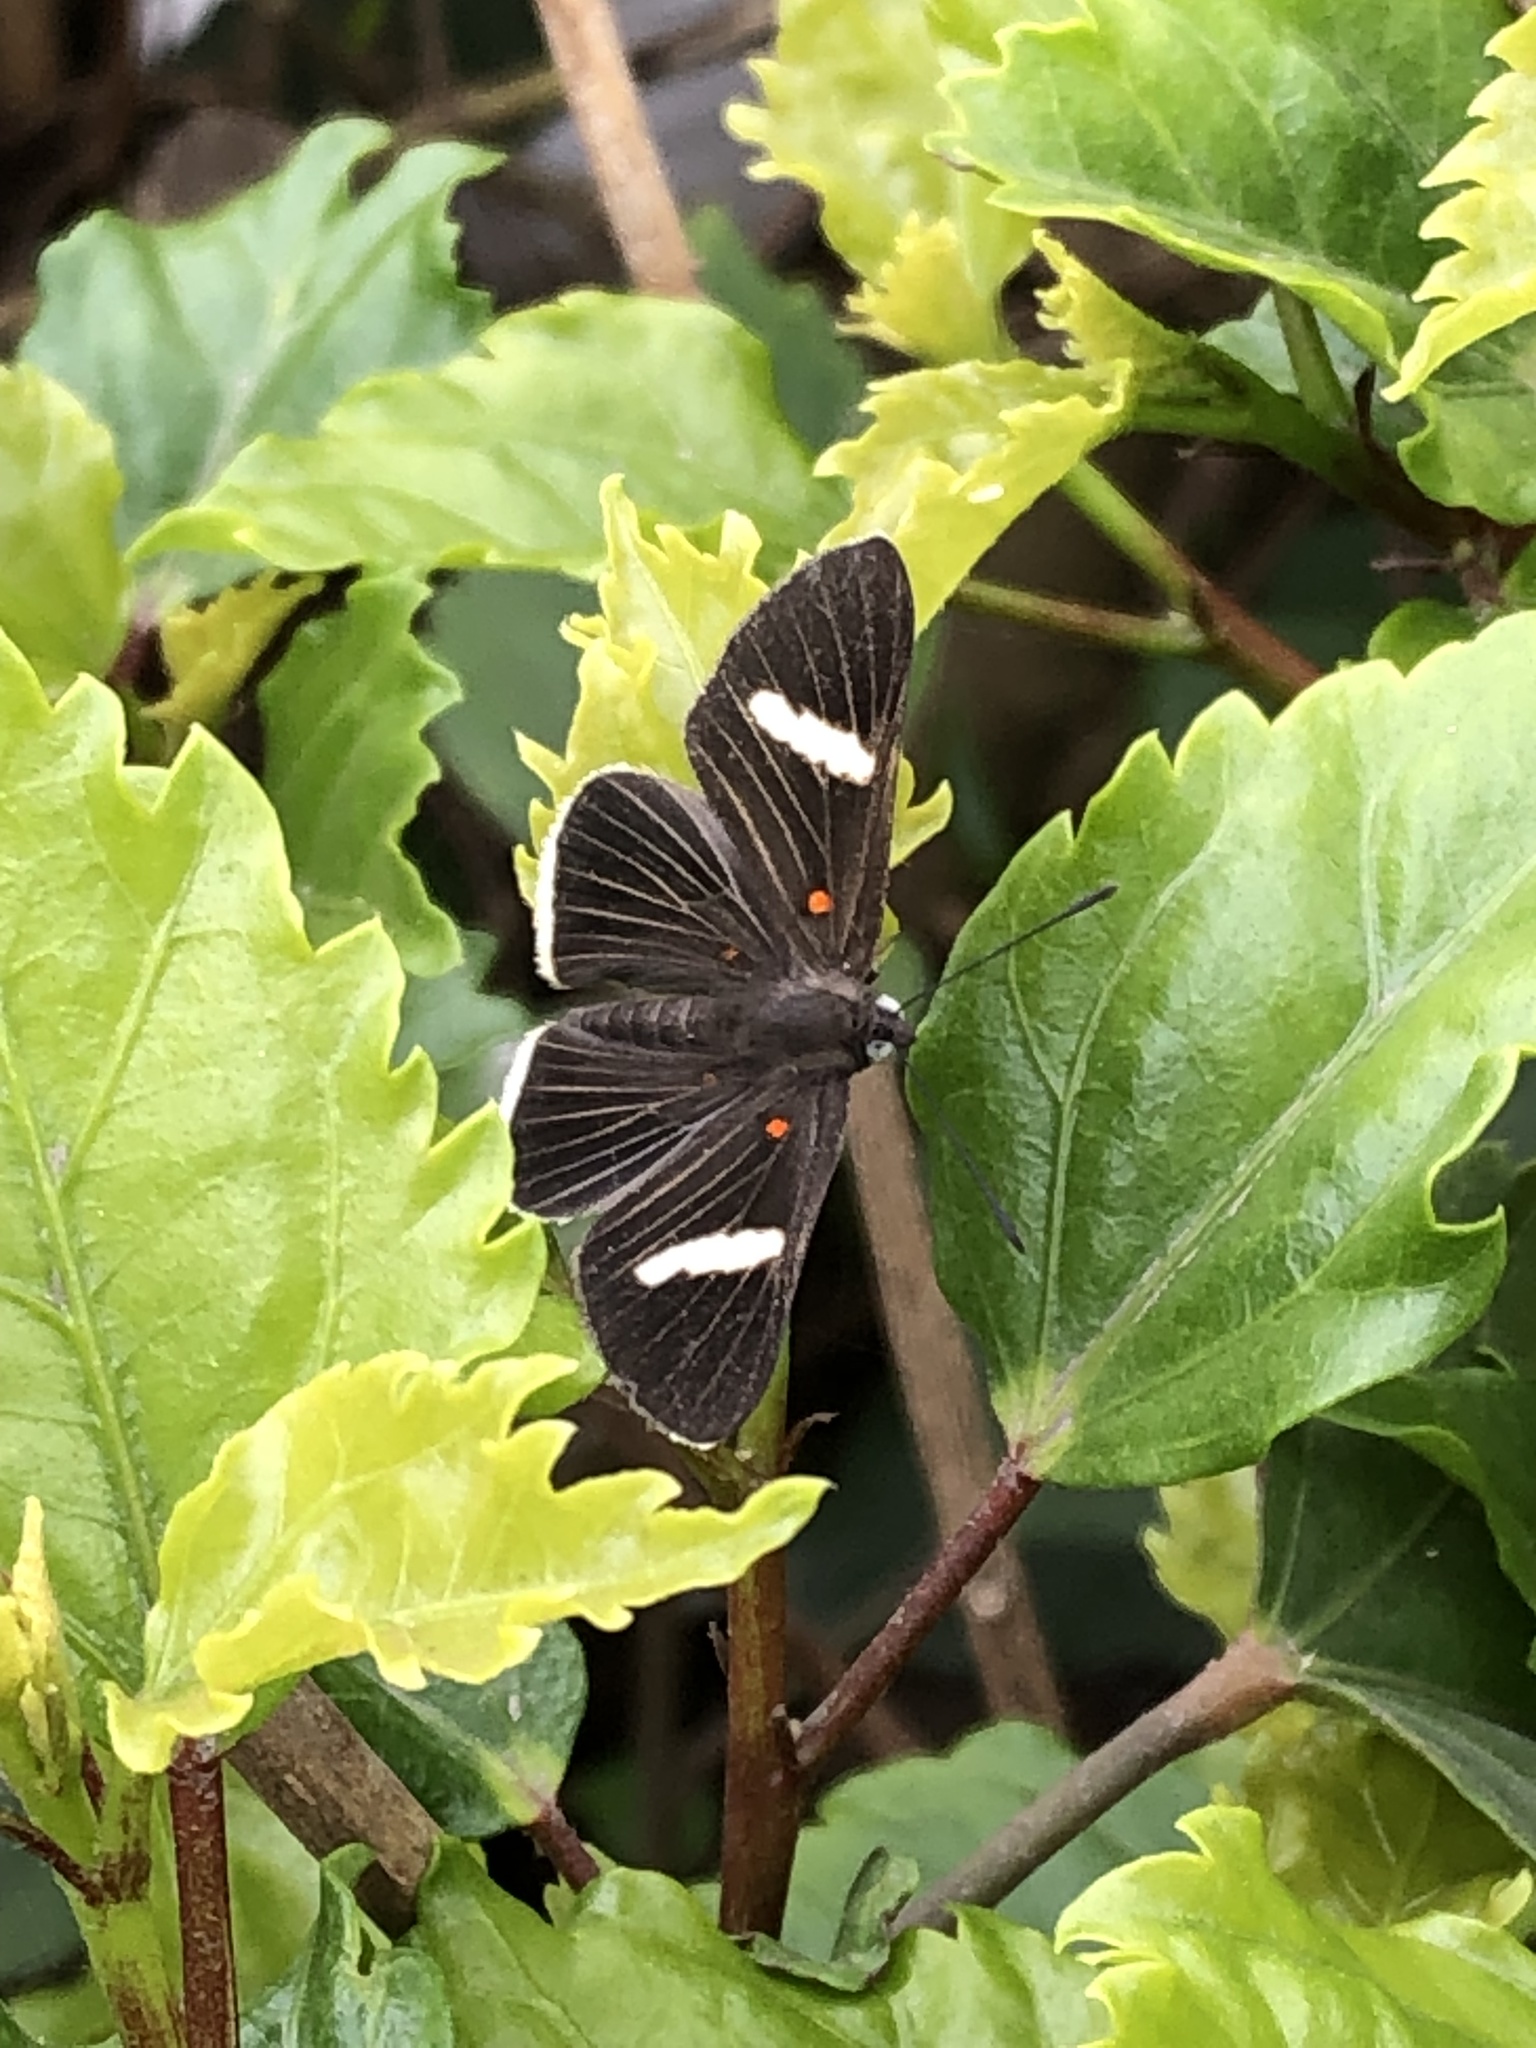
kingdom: Animalia
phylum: Arthropoda
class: Insecta
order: Lepidoptera
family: Lycaenidae
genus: Melanis
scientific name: Melanis
